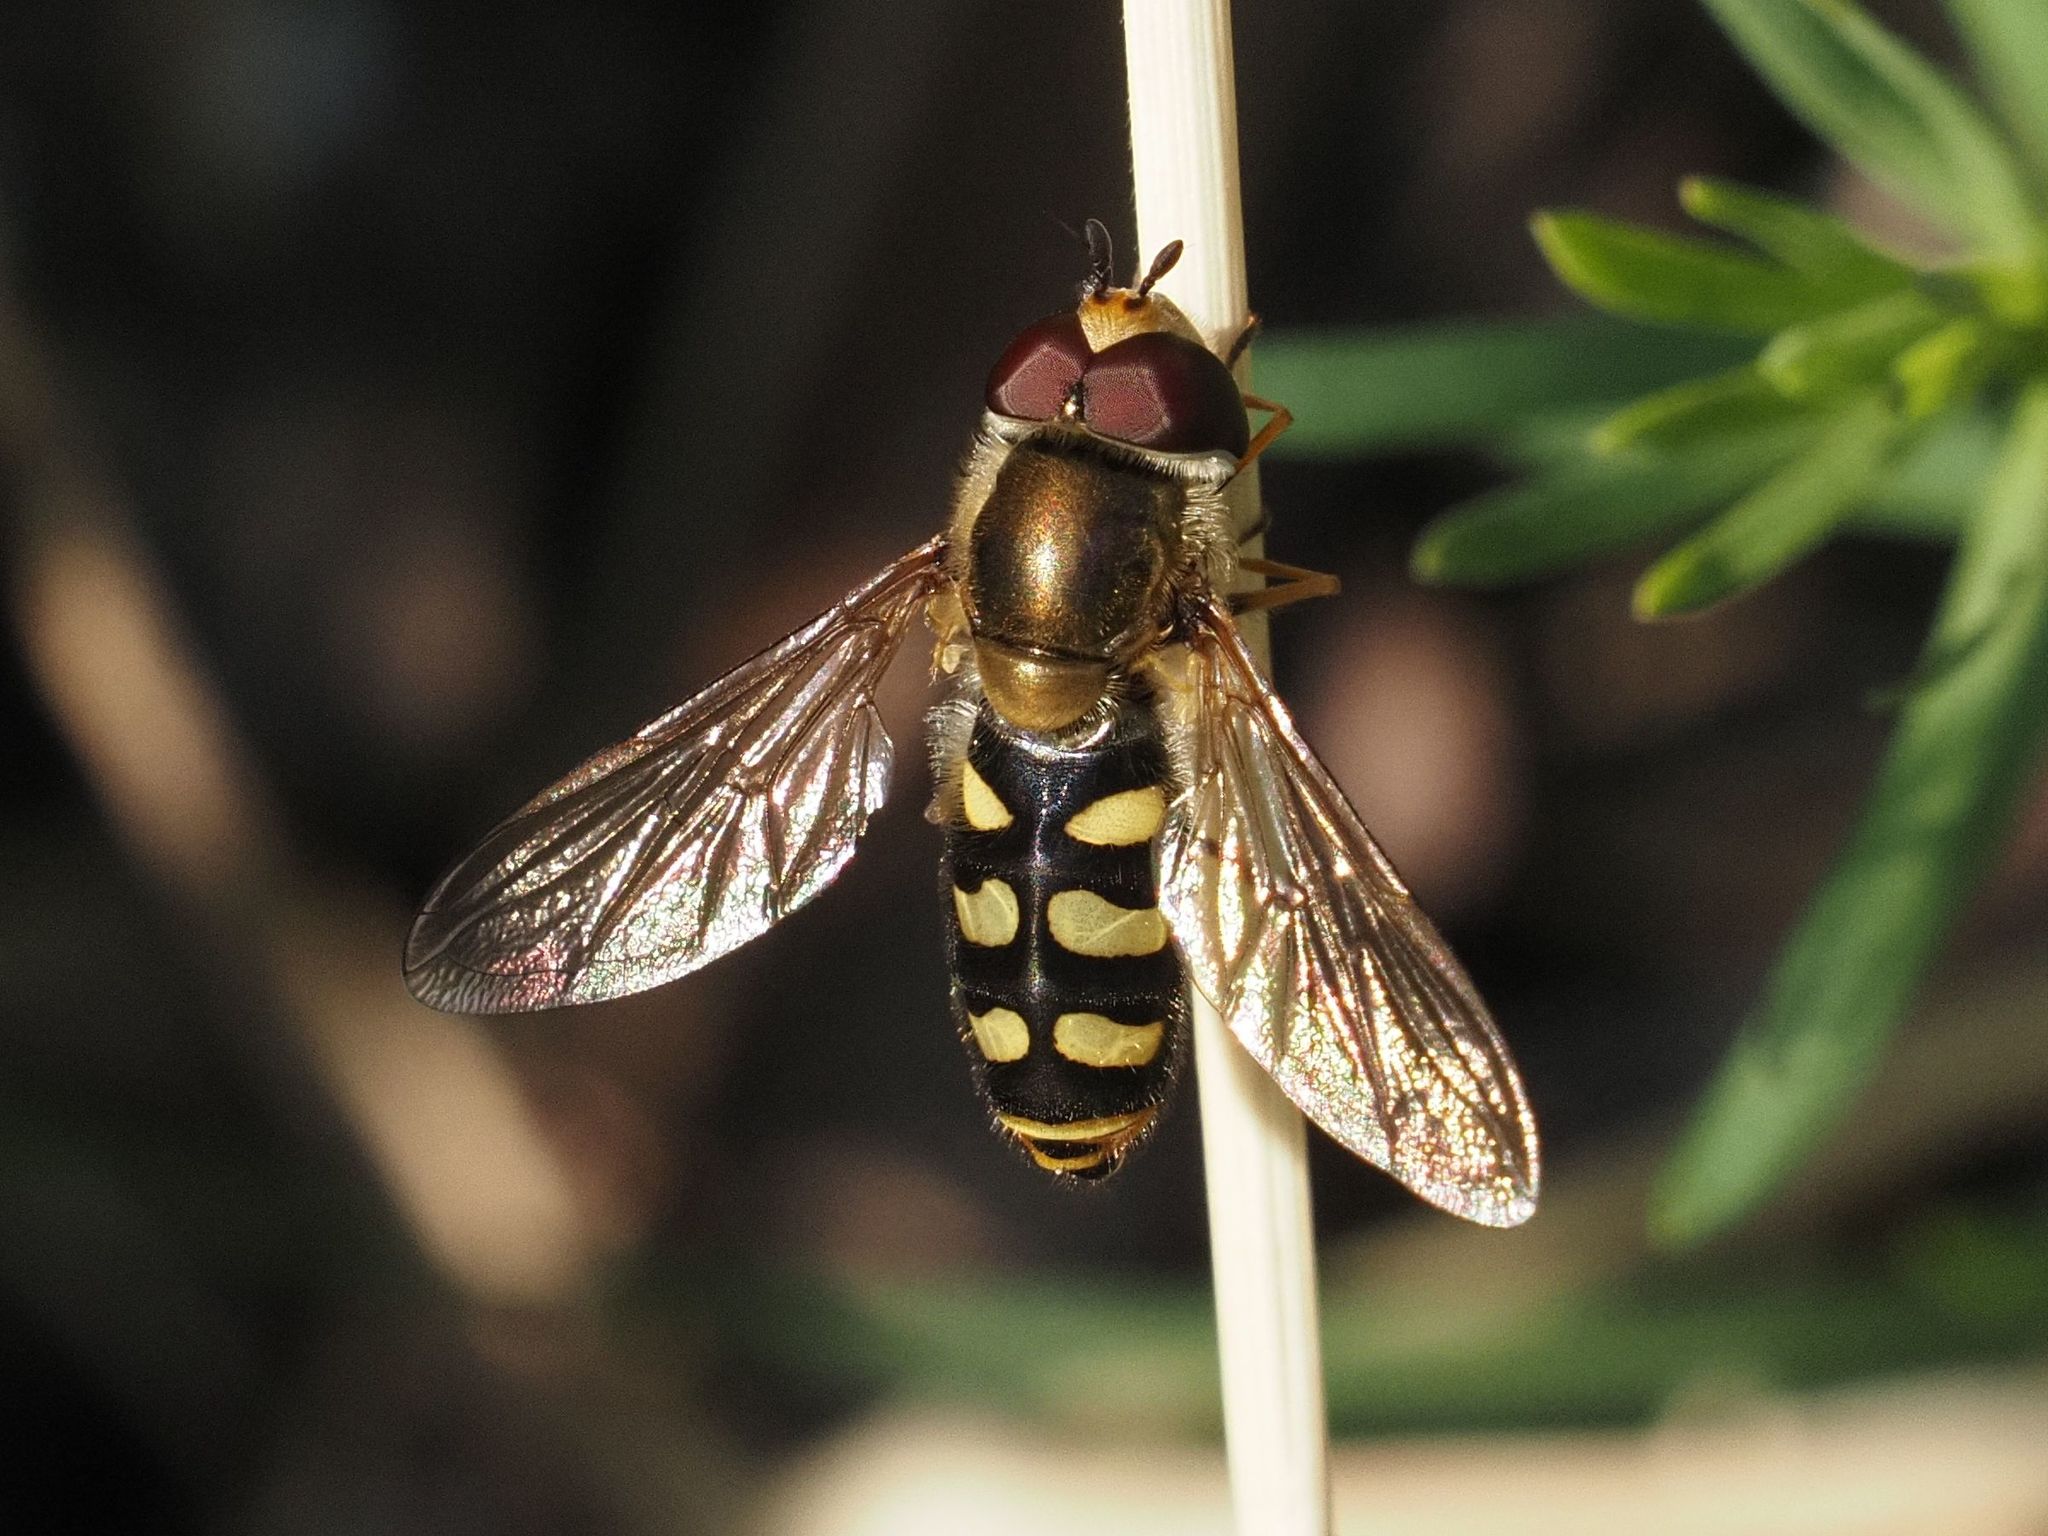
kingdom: Animalia
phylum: Arthropoda
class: Insecta
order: Diptera
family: Syrphidae
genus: Eupeodes
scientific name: Eupeodes luniger
